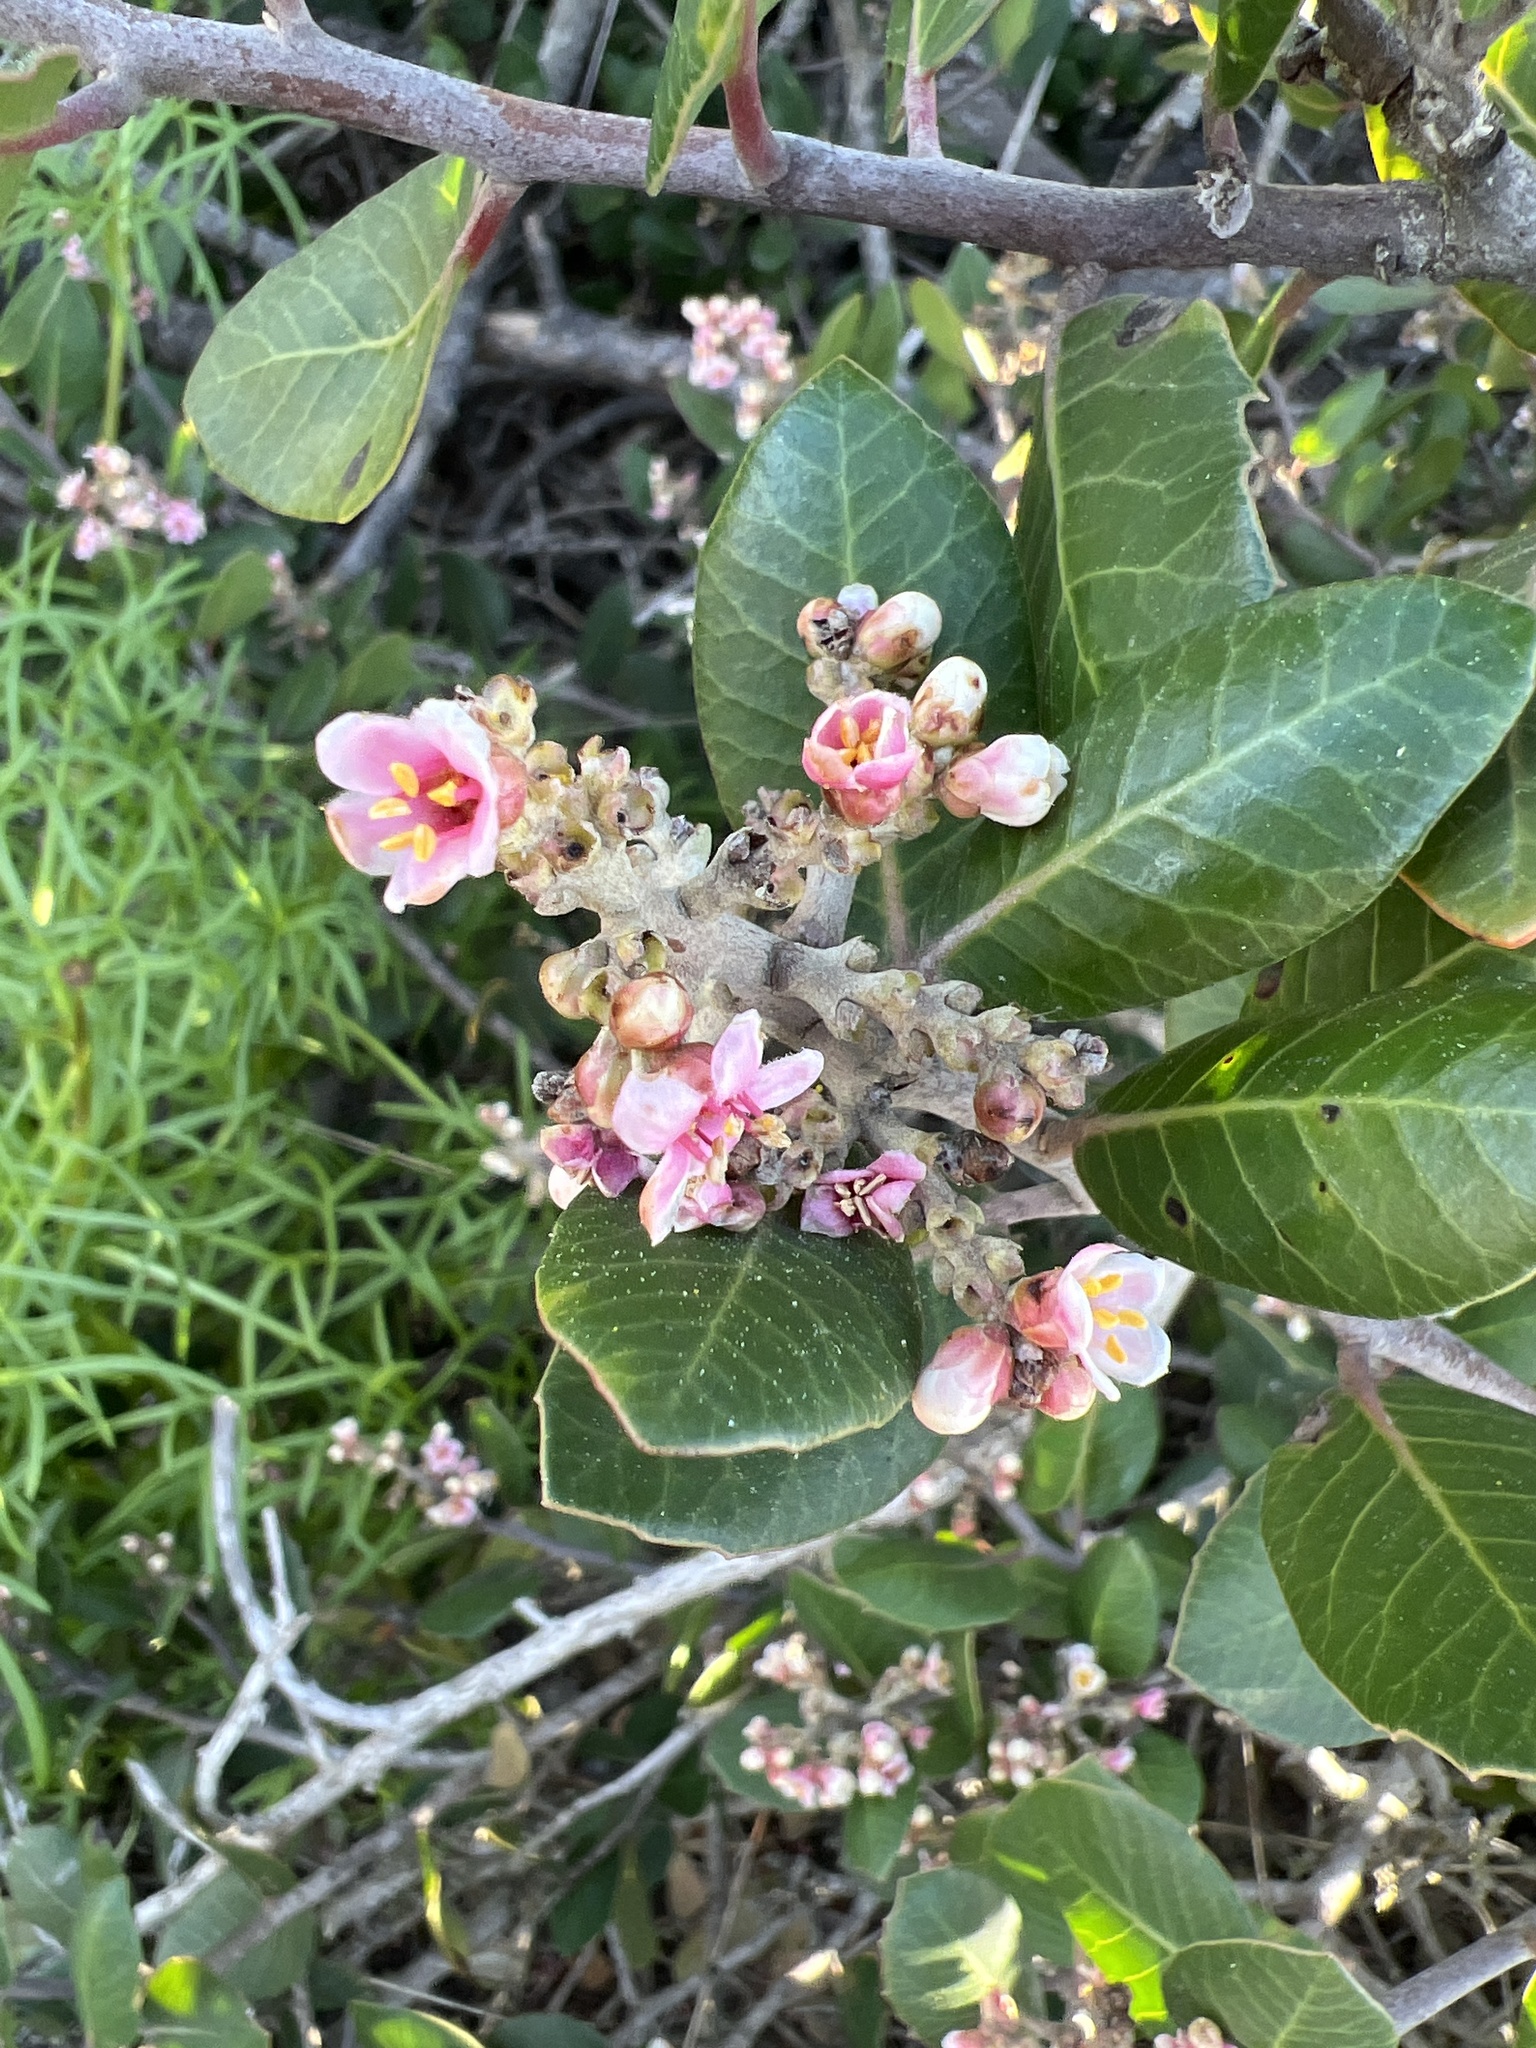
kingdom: Plantae
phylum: Tracheophyta
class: Magnoliopsida
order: Sapindales
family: Anacardiaceae
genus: Rhus
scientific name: Rhus integrifolia
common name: Lemonade sumac
